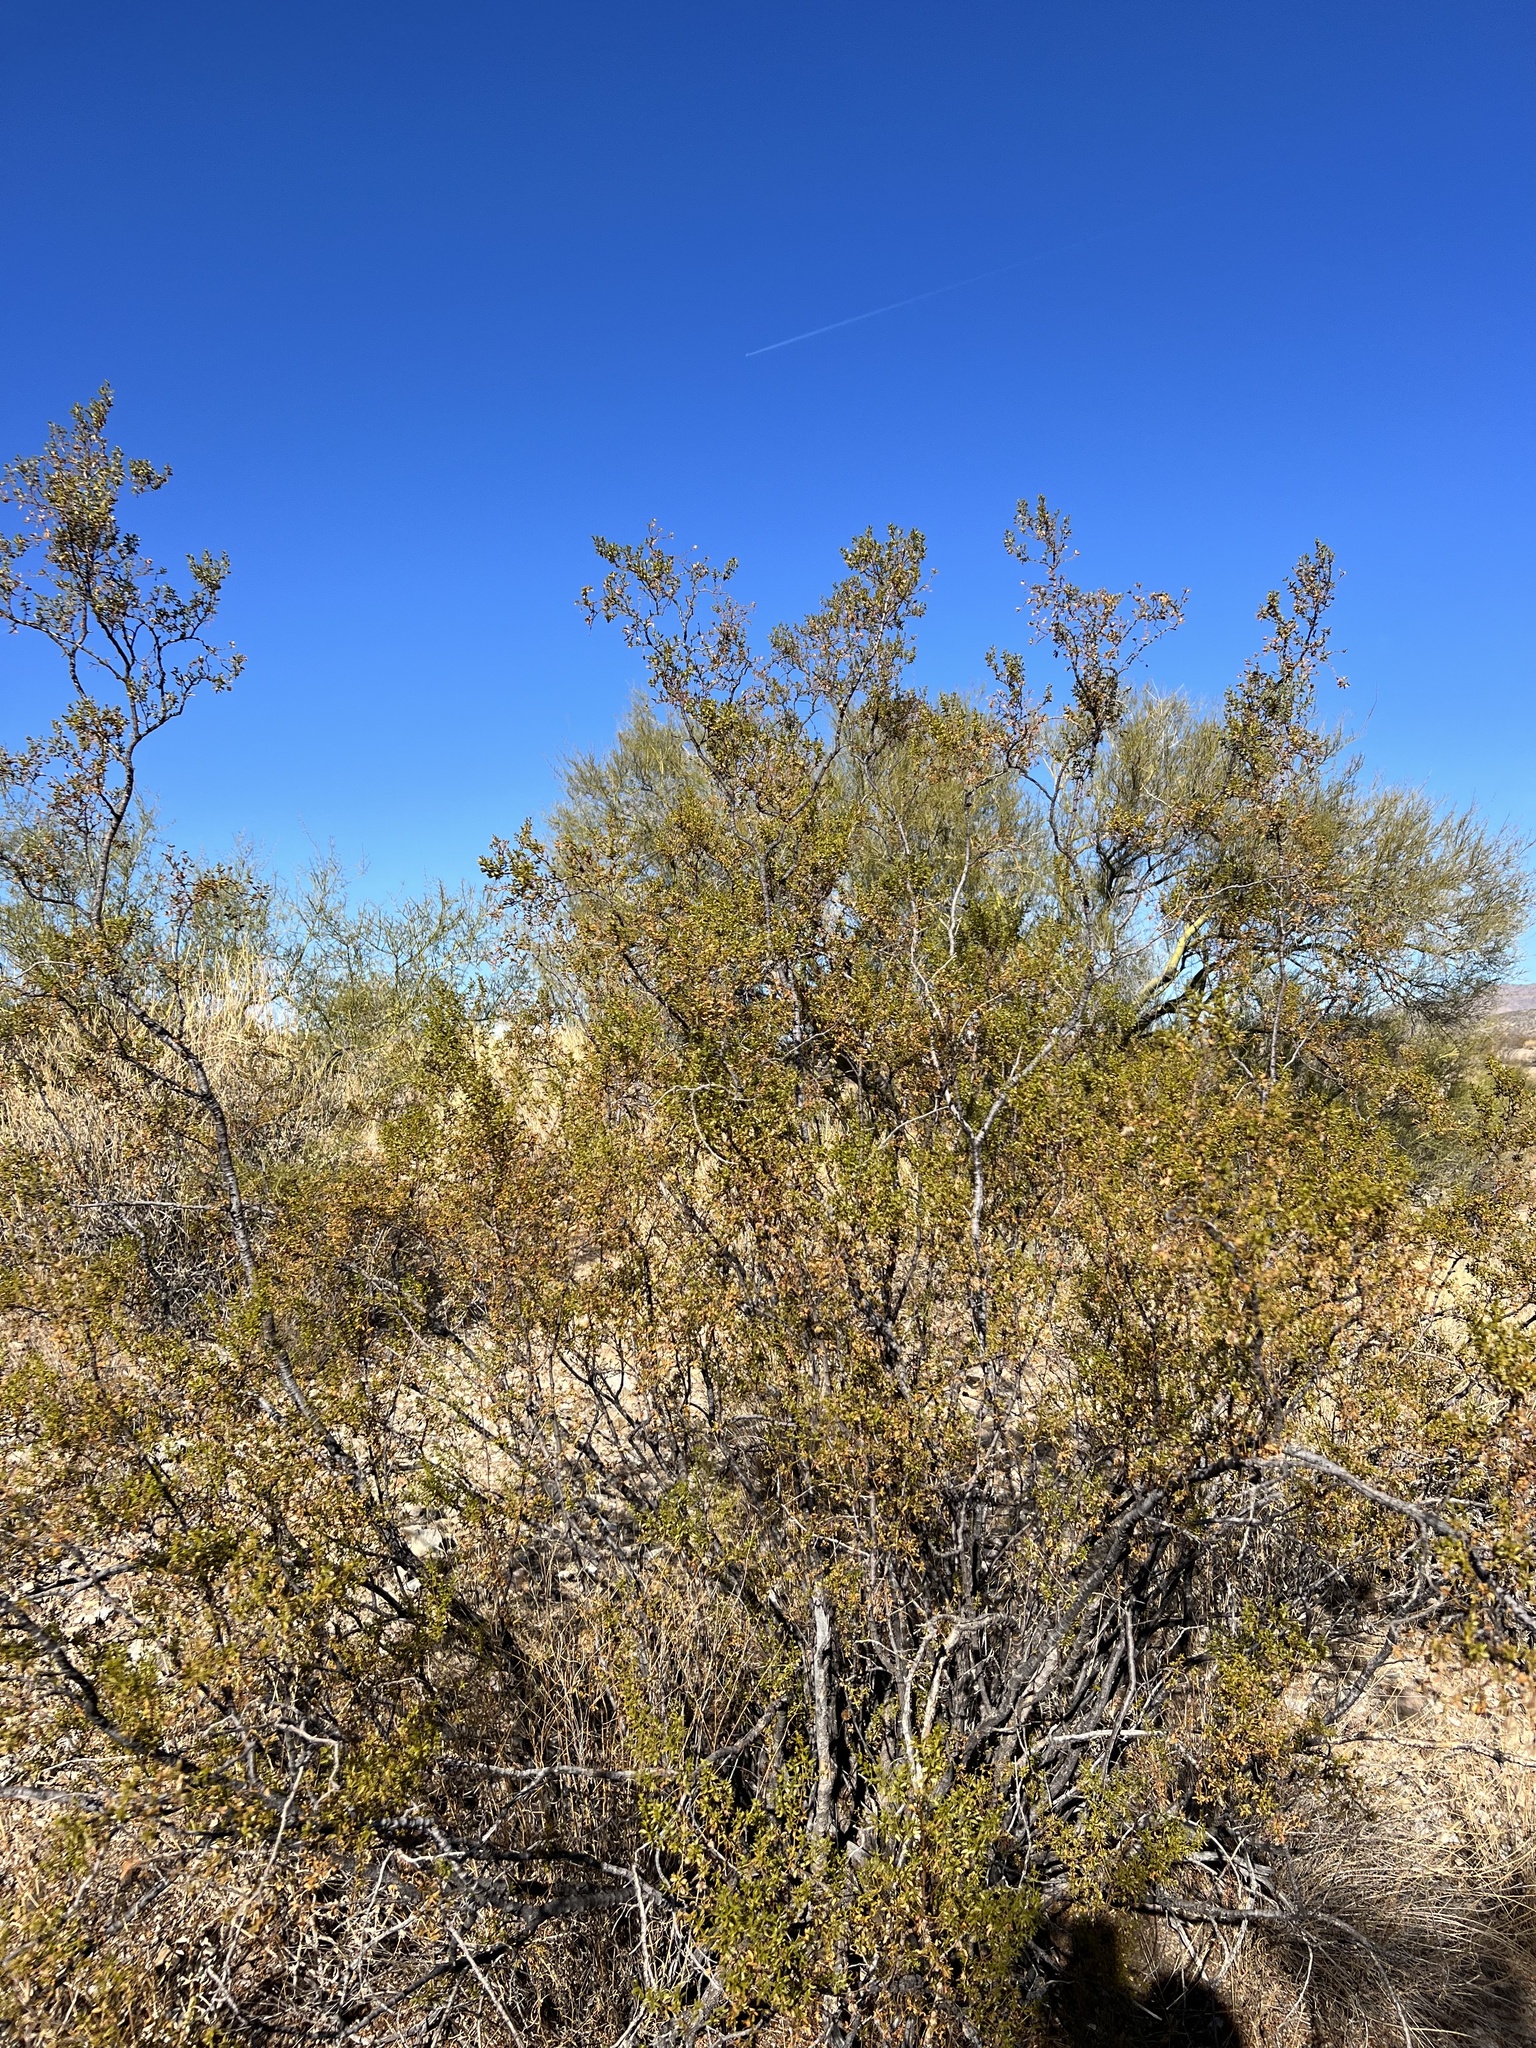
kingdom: Plantae
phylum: Tracheophyta
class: Magnoliopsida
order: Zygophyllales
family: Zygophyllaceae
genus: Larrea
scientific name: Larrea tridentata
